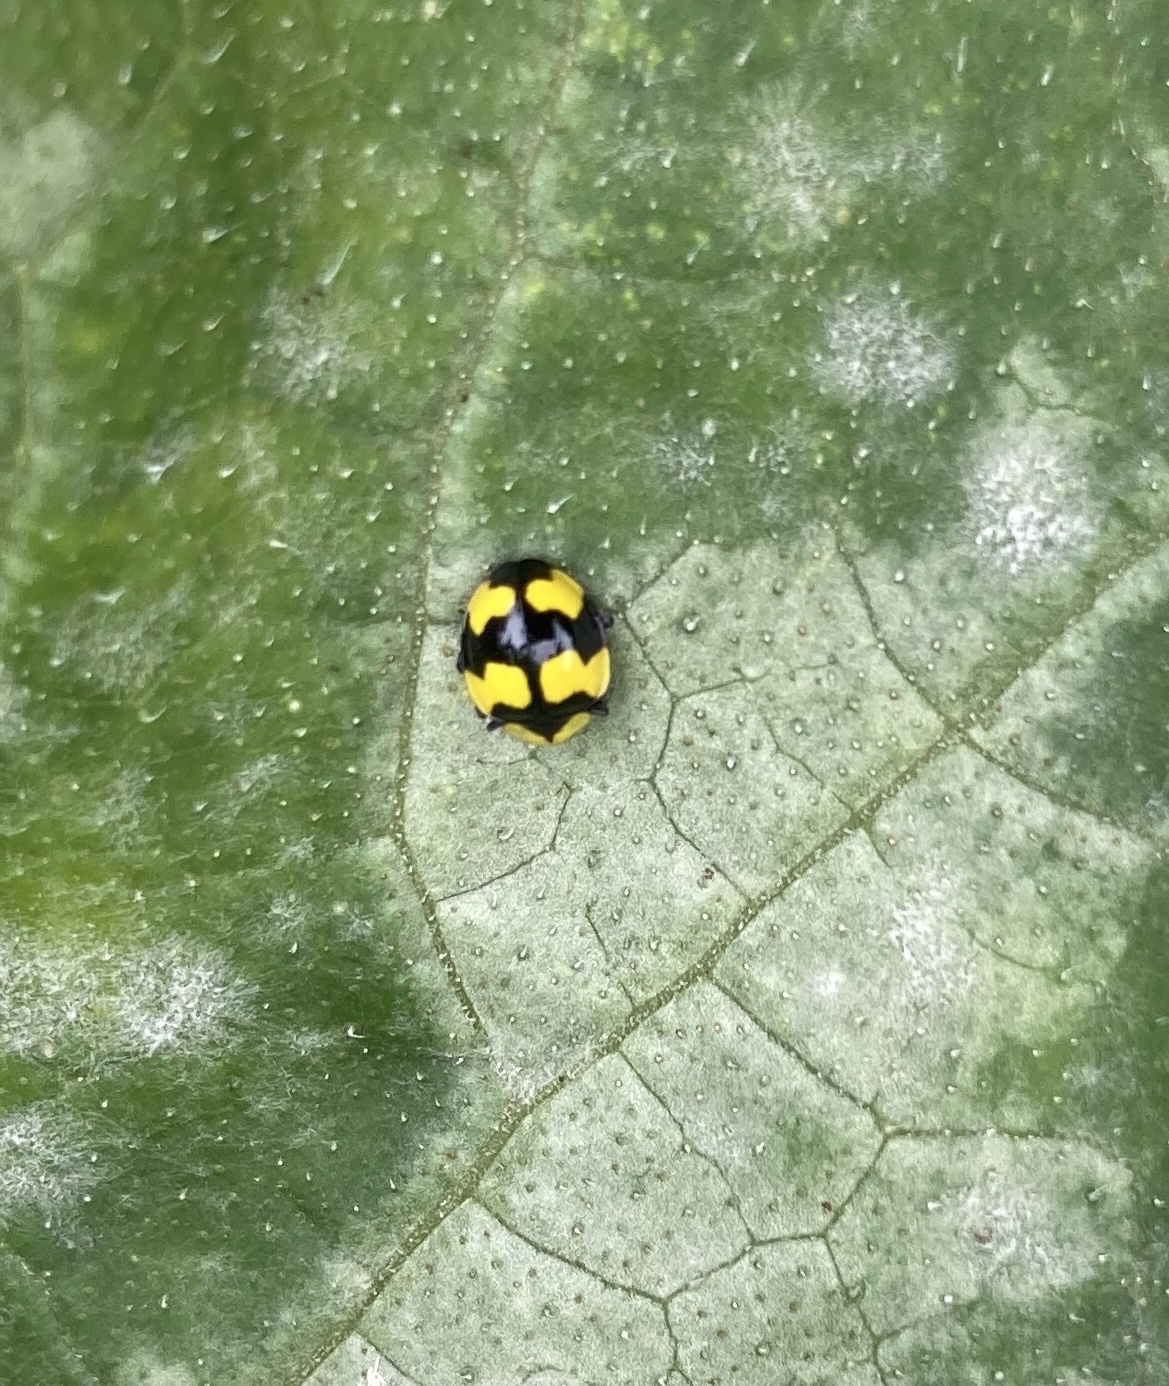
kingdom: Animalia
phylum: Arthropoda
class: Insecta
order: Coleoptera
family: Coccinellidae
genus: Illeis
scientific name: Illeis galbula
